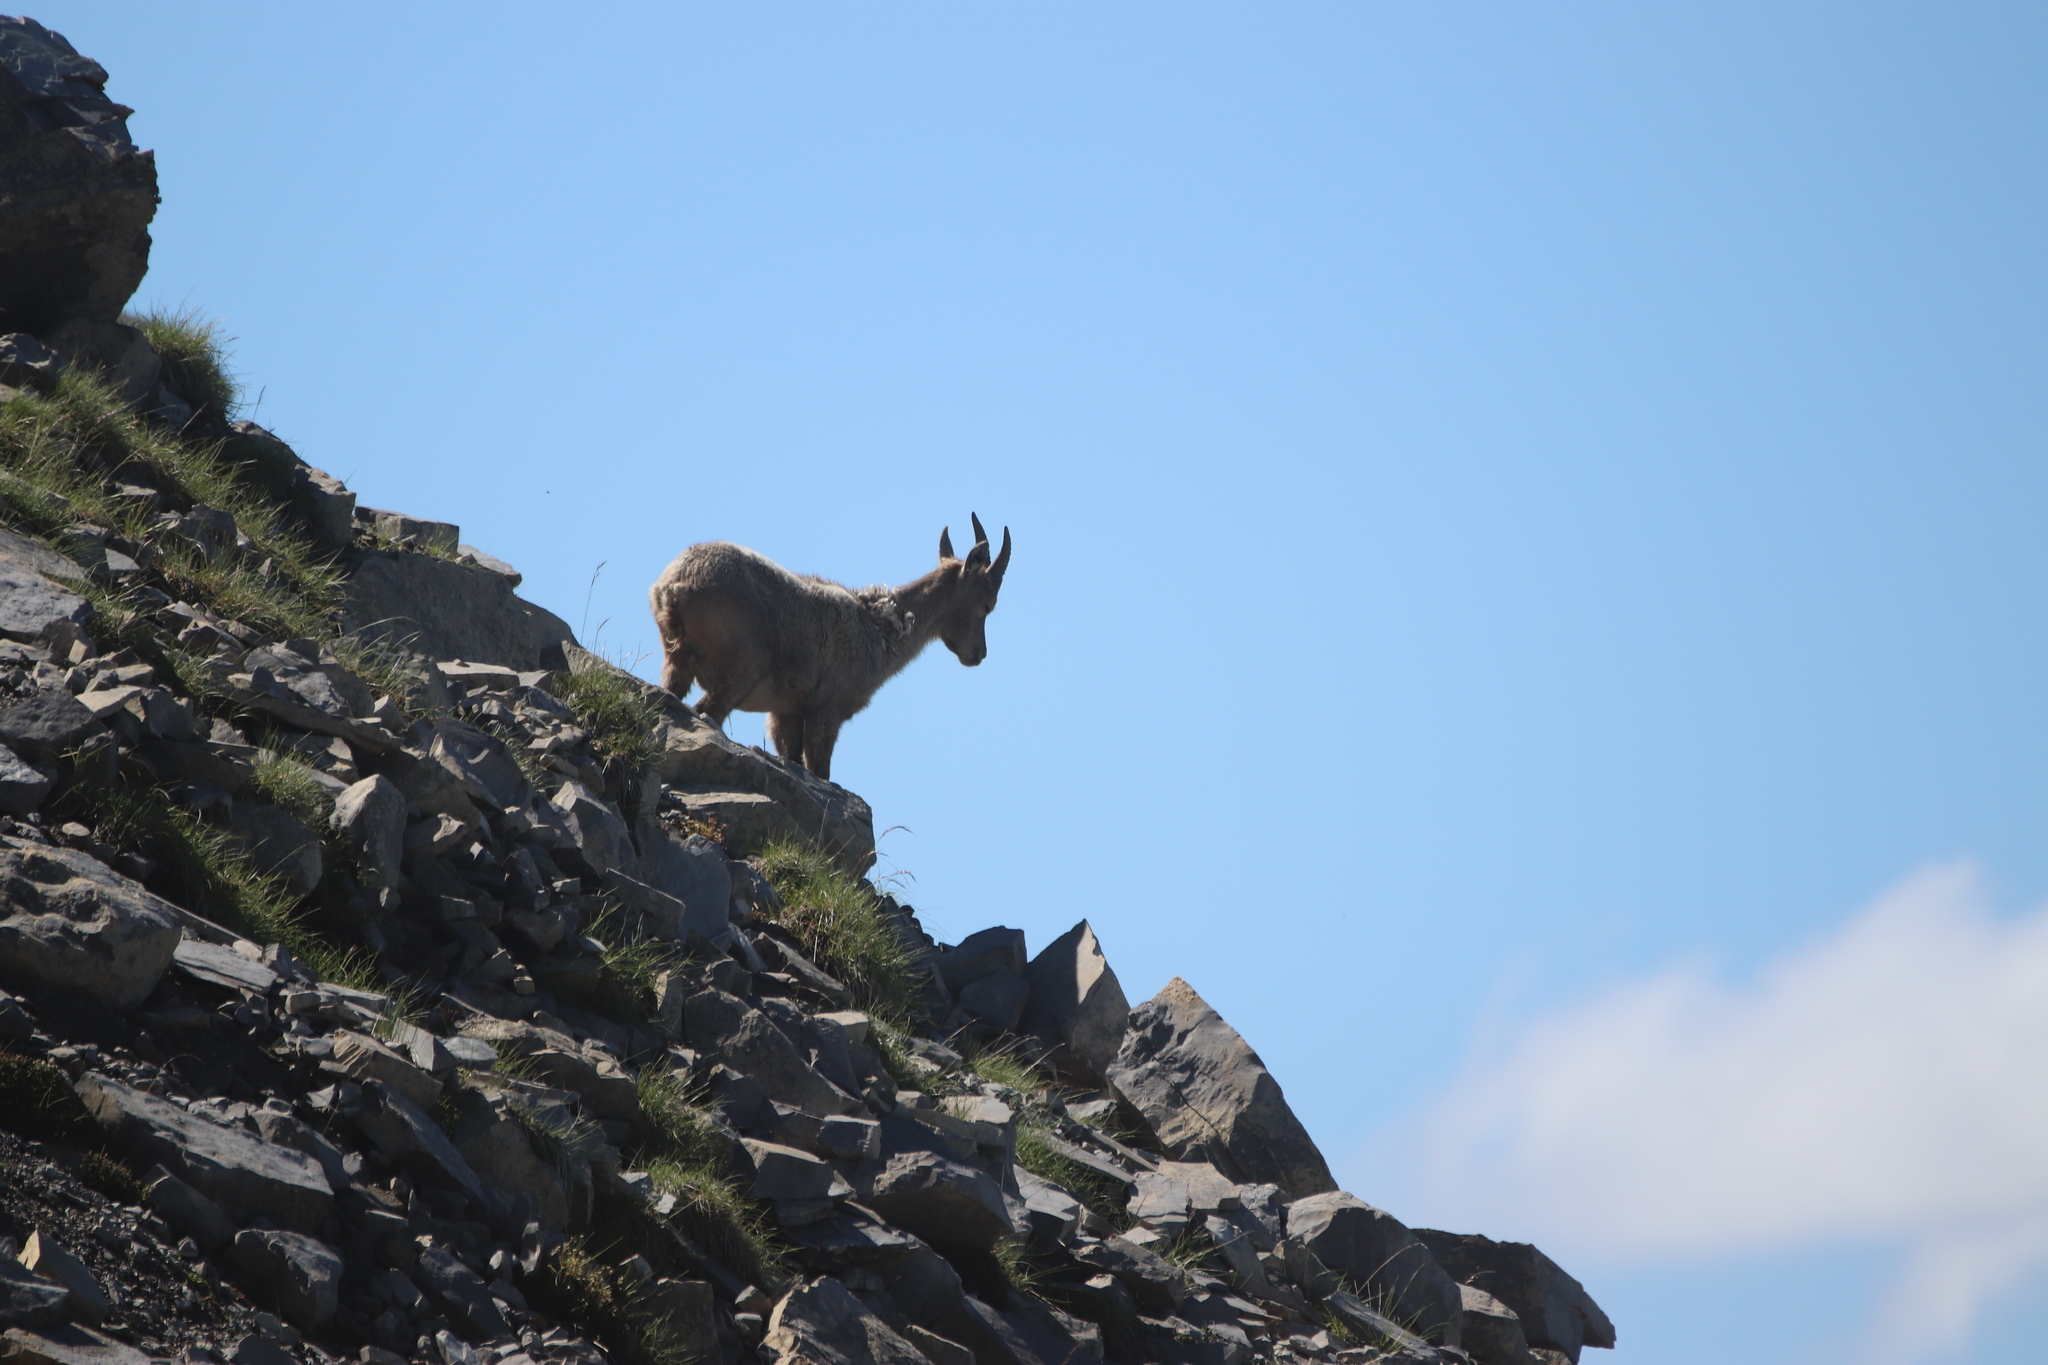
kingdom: Animalia
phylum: Chordata
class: Mammalia
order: Artiodactyla
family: Bovidae
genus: Capra
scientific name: Capra ibex
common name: Alpine ibex
